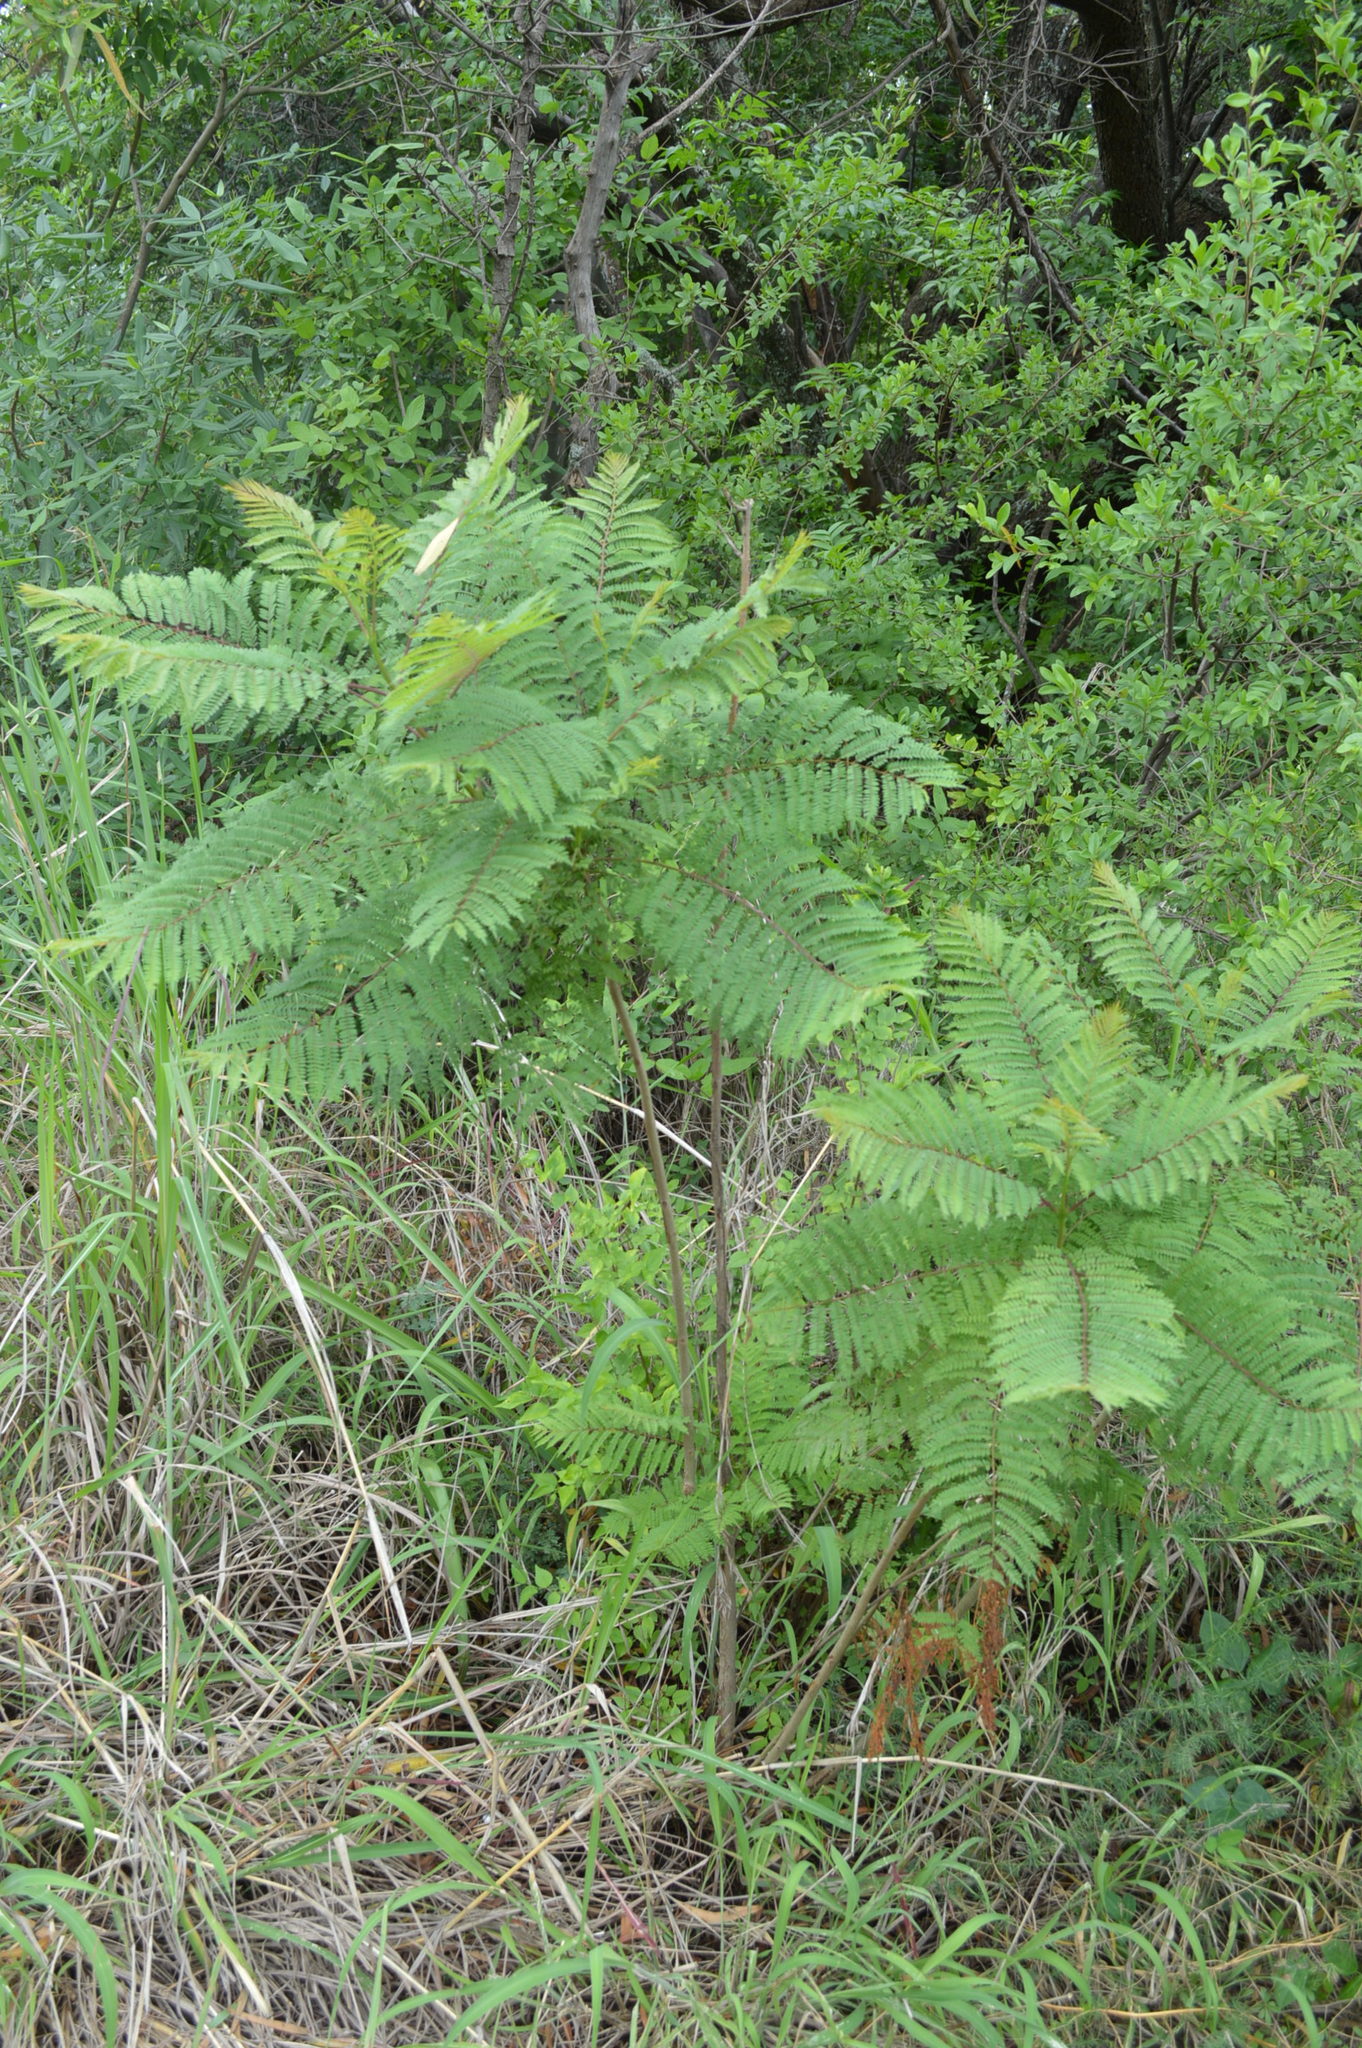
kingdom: Plantae
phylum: Tracheophyta
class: Magnoliopsida
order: Lamiales
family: Bignoniaceae
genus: Jacaranda
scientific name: Jacaranda mimosifolia
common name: Black poui
